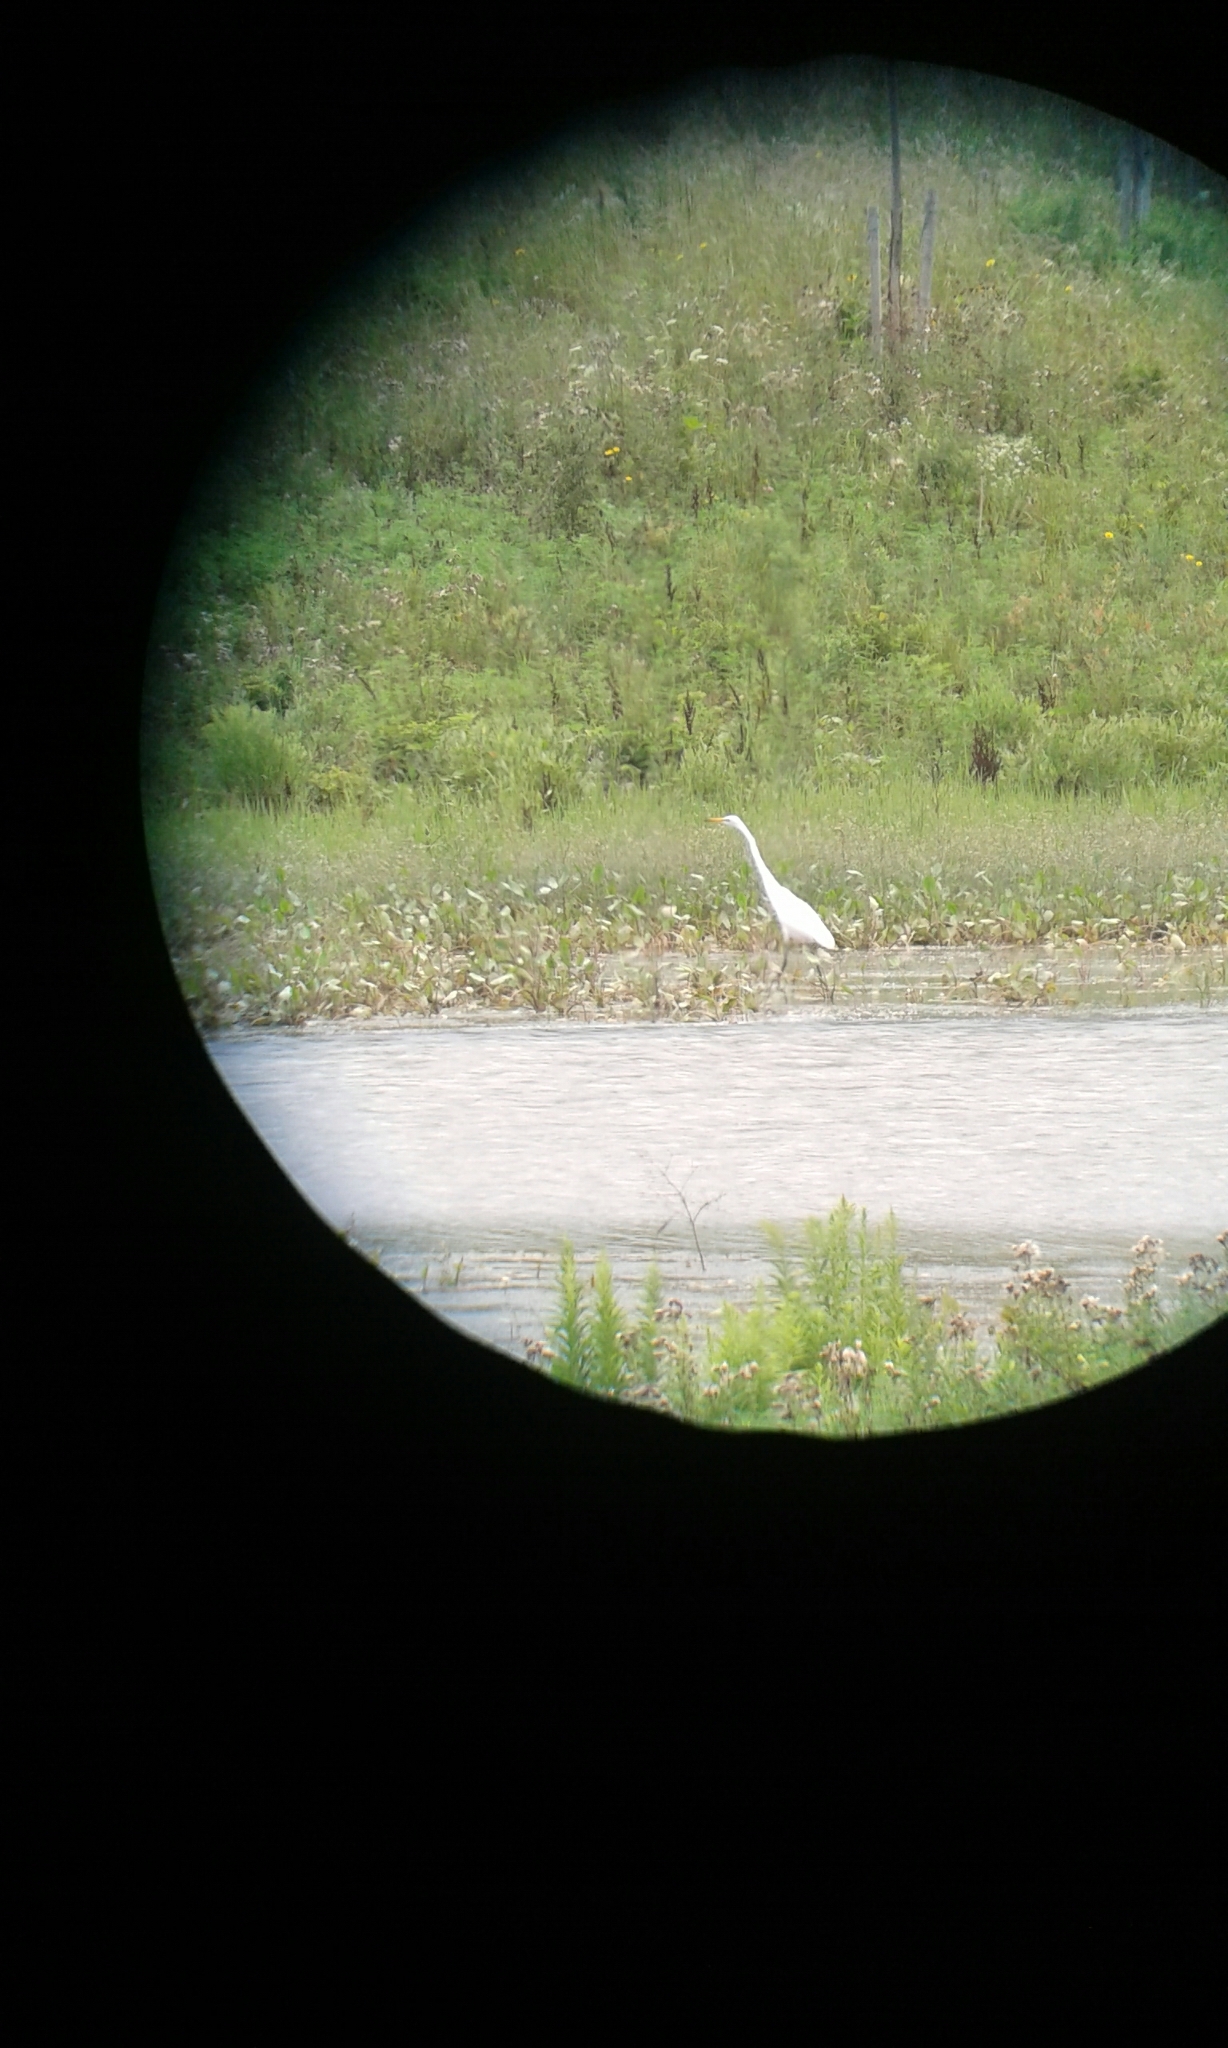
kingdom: Animalia
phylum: Chordata
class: Aves
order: Pelecaniformes
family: Ardeidae
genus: Ardea
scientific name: Ardea alba
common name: Great egret
